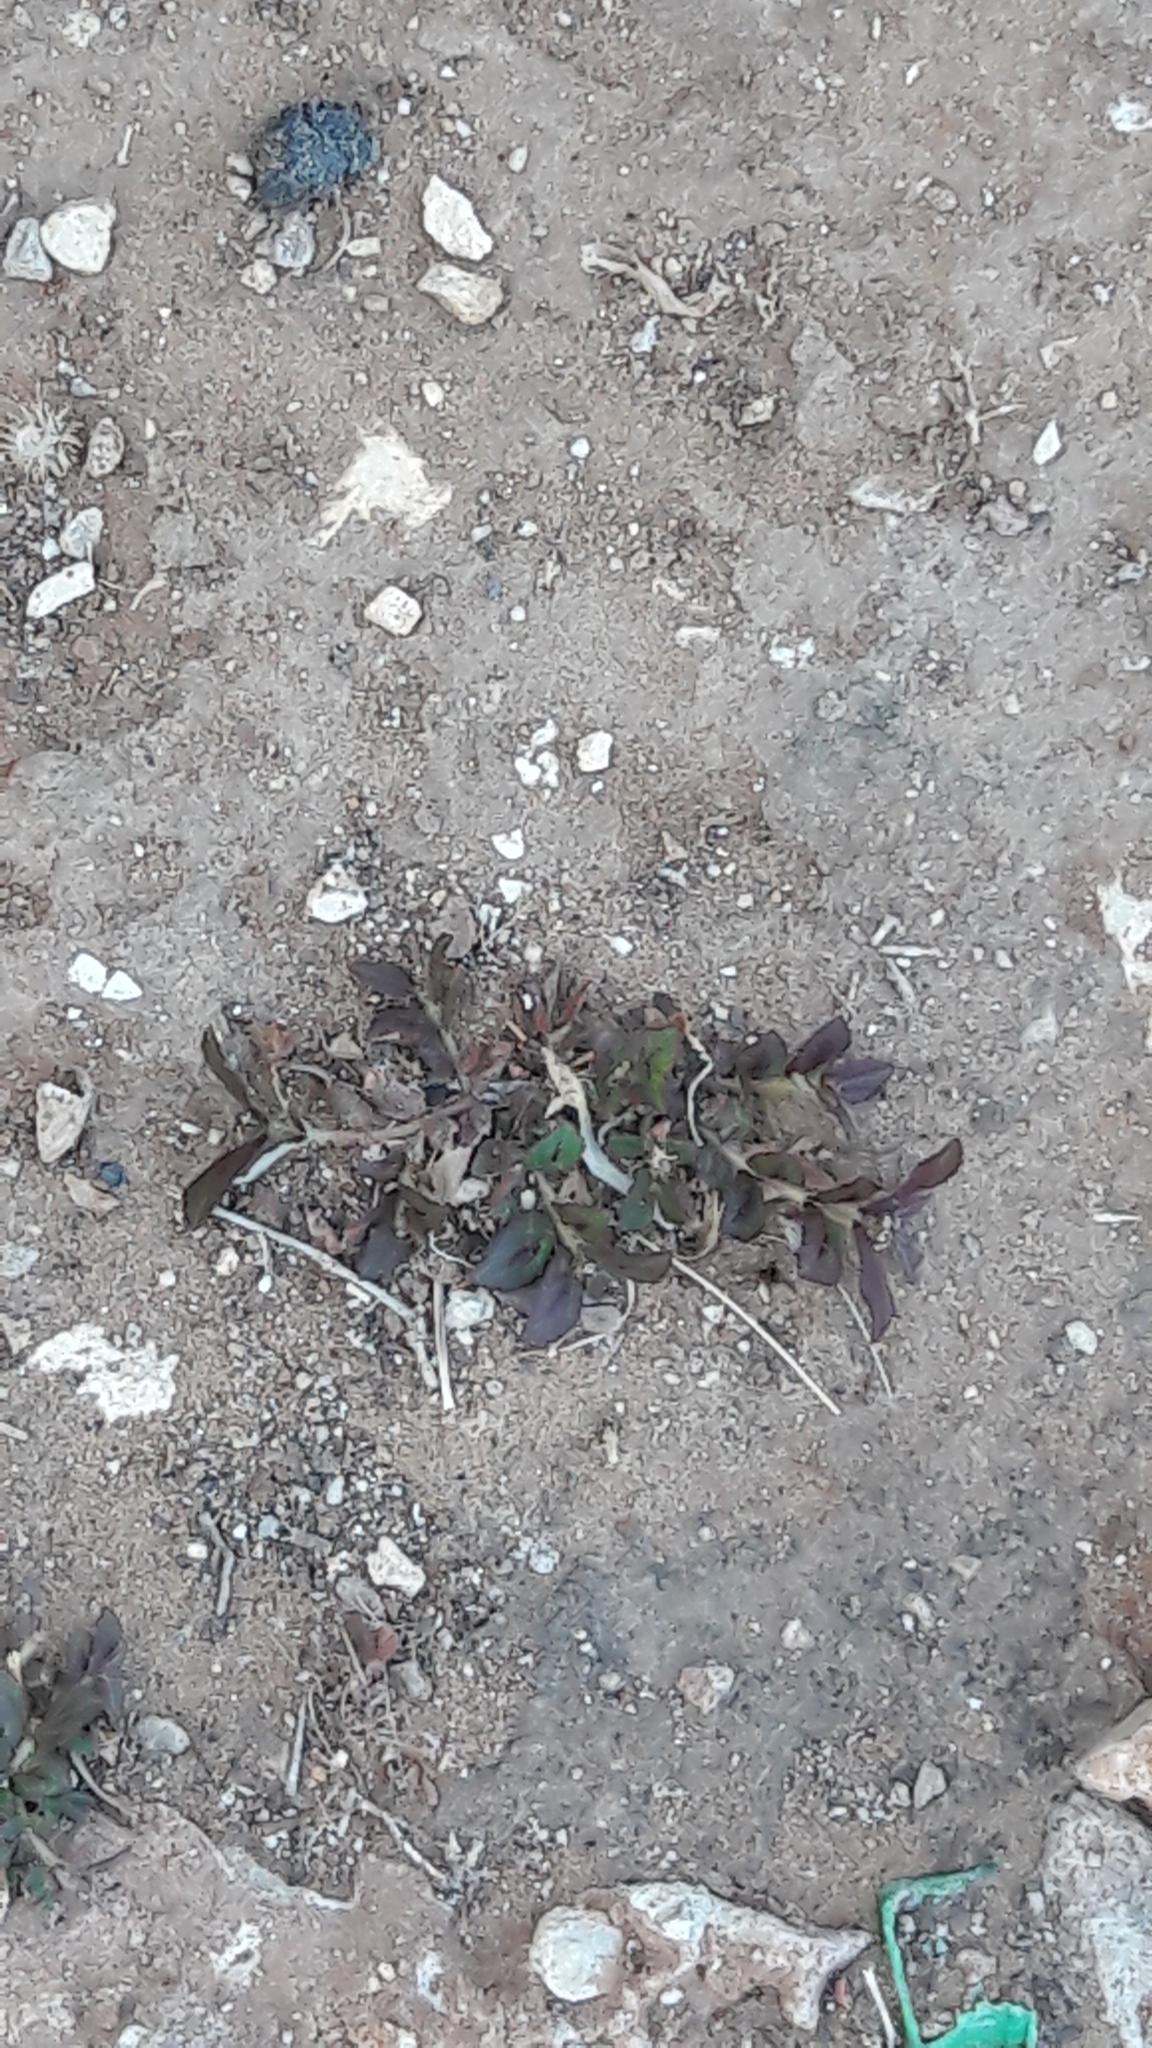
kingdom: Plantae
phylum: Tracheophyta
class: Magnoliopsida
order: Malpighiales
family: Euphorbiaceae
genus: Euphorbia
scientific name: Euphorbia hirta
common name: Pillpod sandmat
